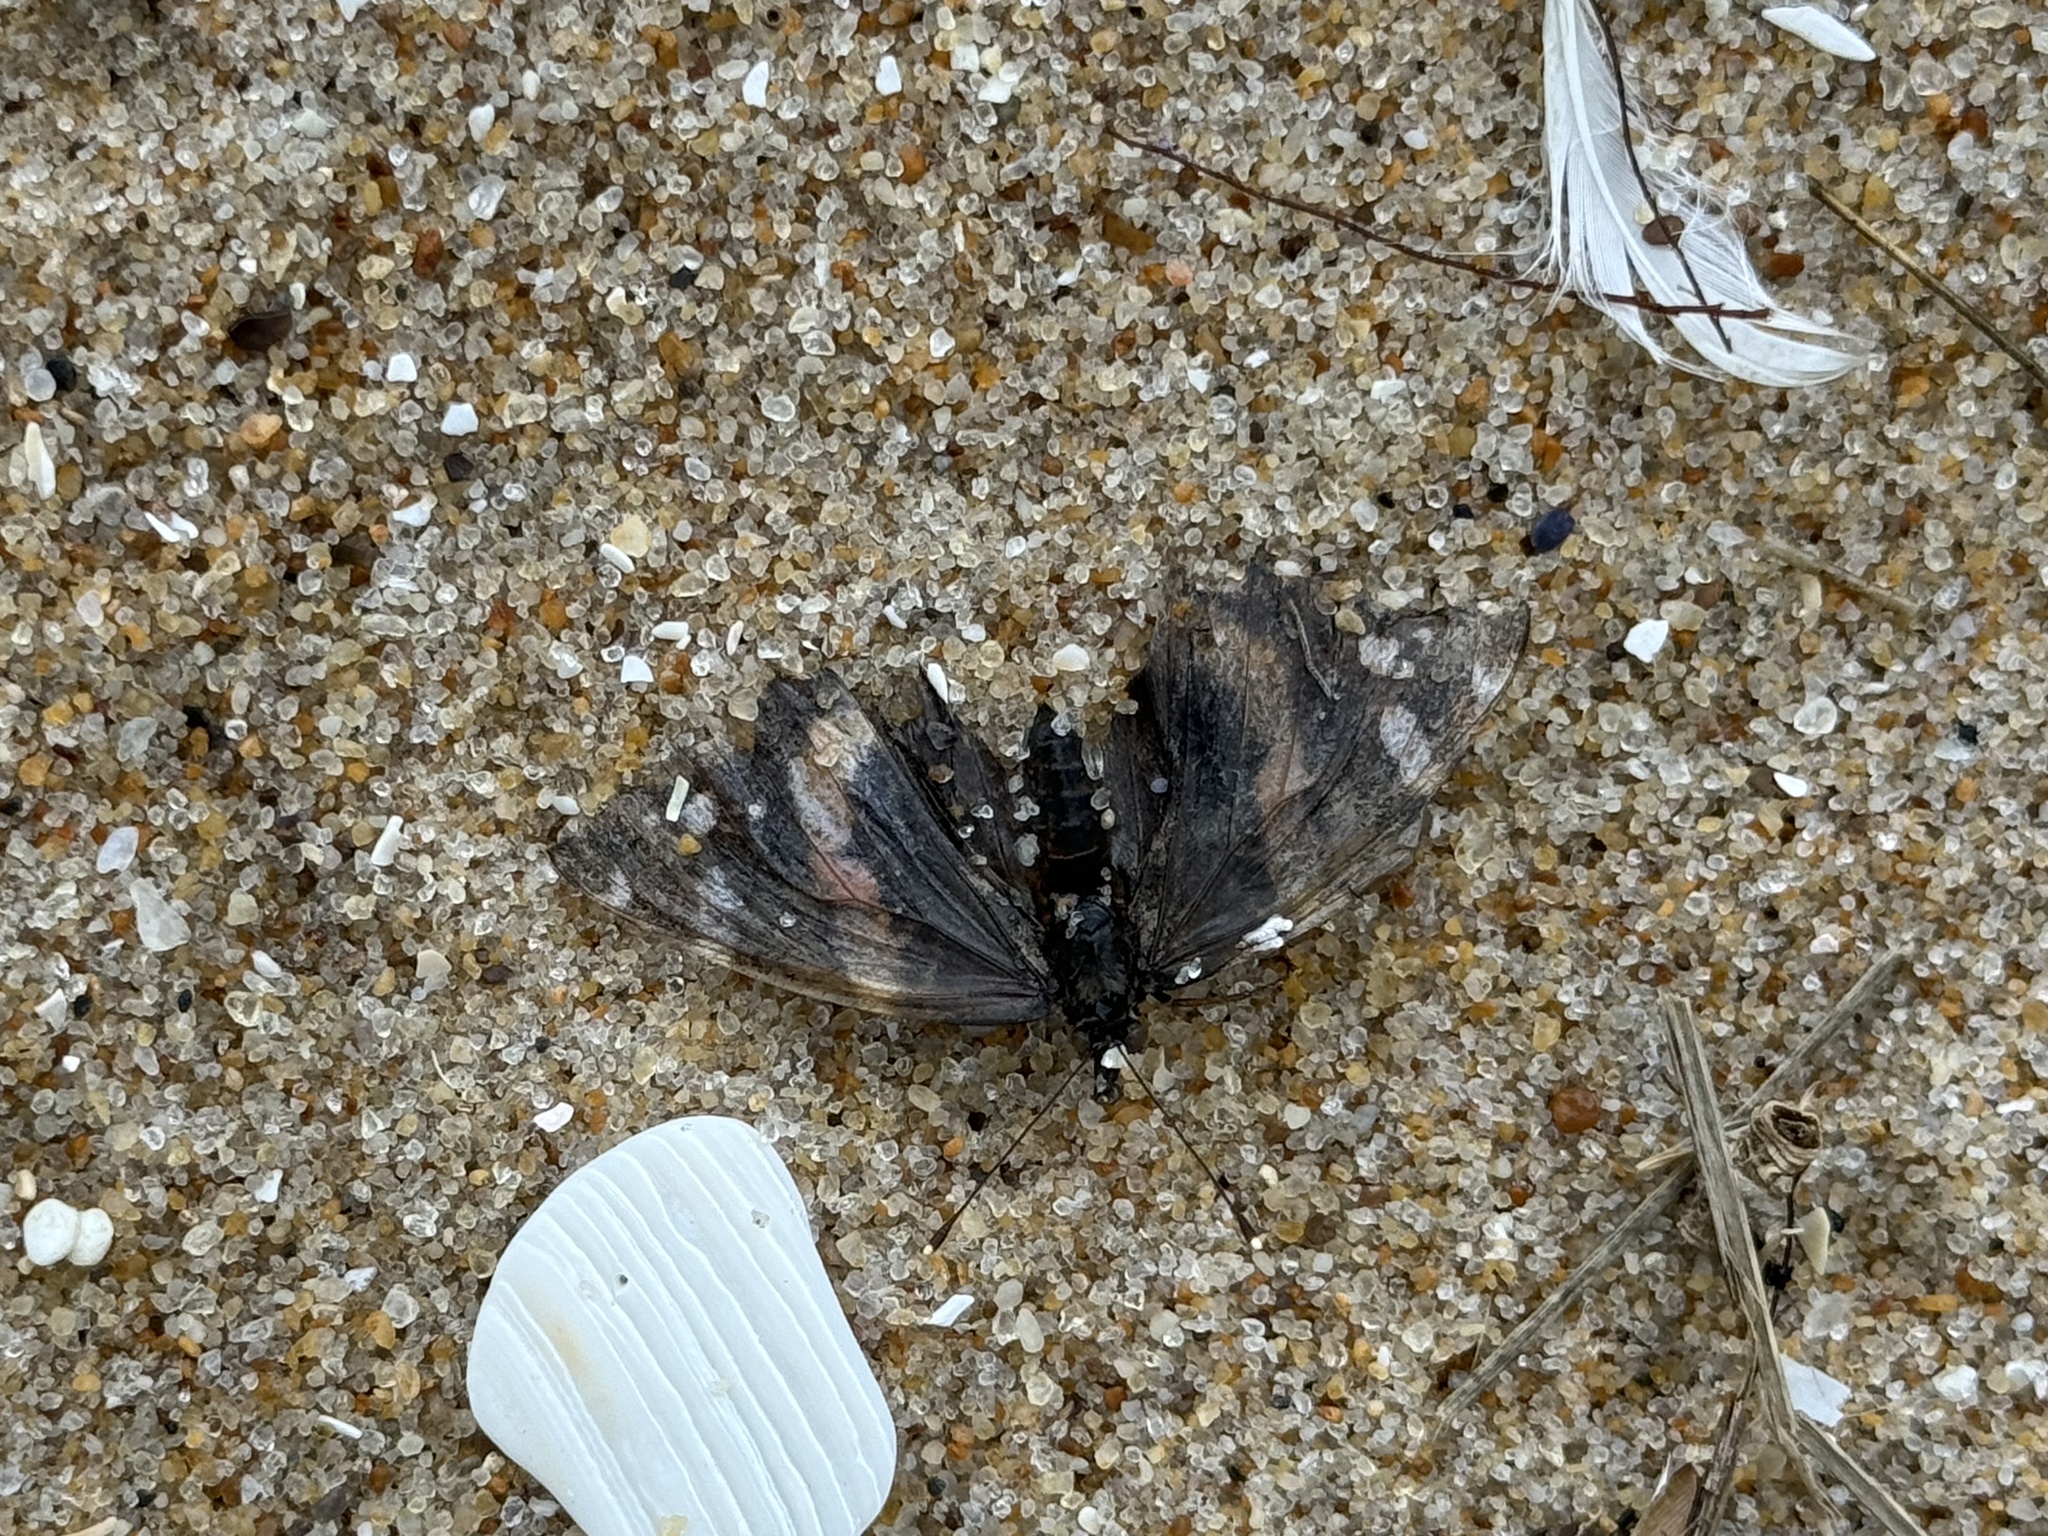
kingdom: Animalia
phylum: Arthropoda
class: Insecta
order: Lepidoptera
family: Nymphalidae
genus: Vanessa
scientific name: Vanessa atalanta
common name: Red admiral
